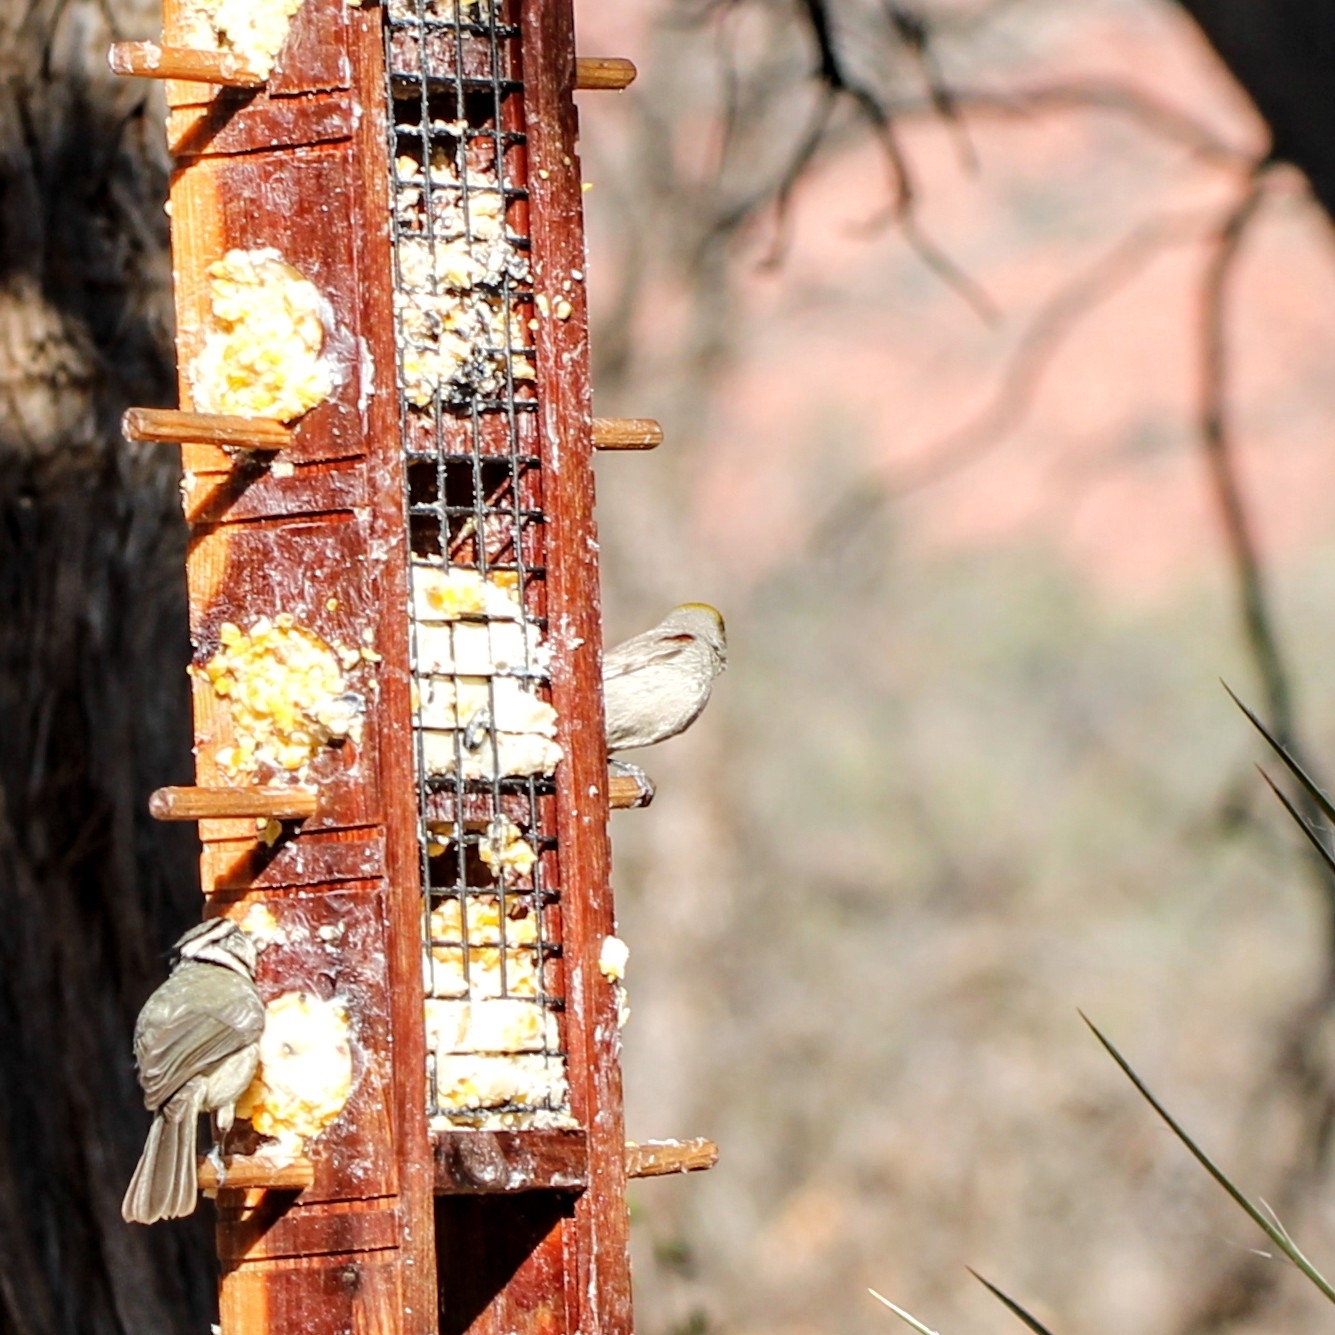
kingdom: Animalia
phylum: Chordata
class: Aves
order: Passeriformes
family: Remizidae
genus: Auriparus
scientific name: Auriparus flaviceps
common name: Verdin
